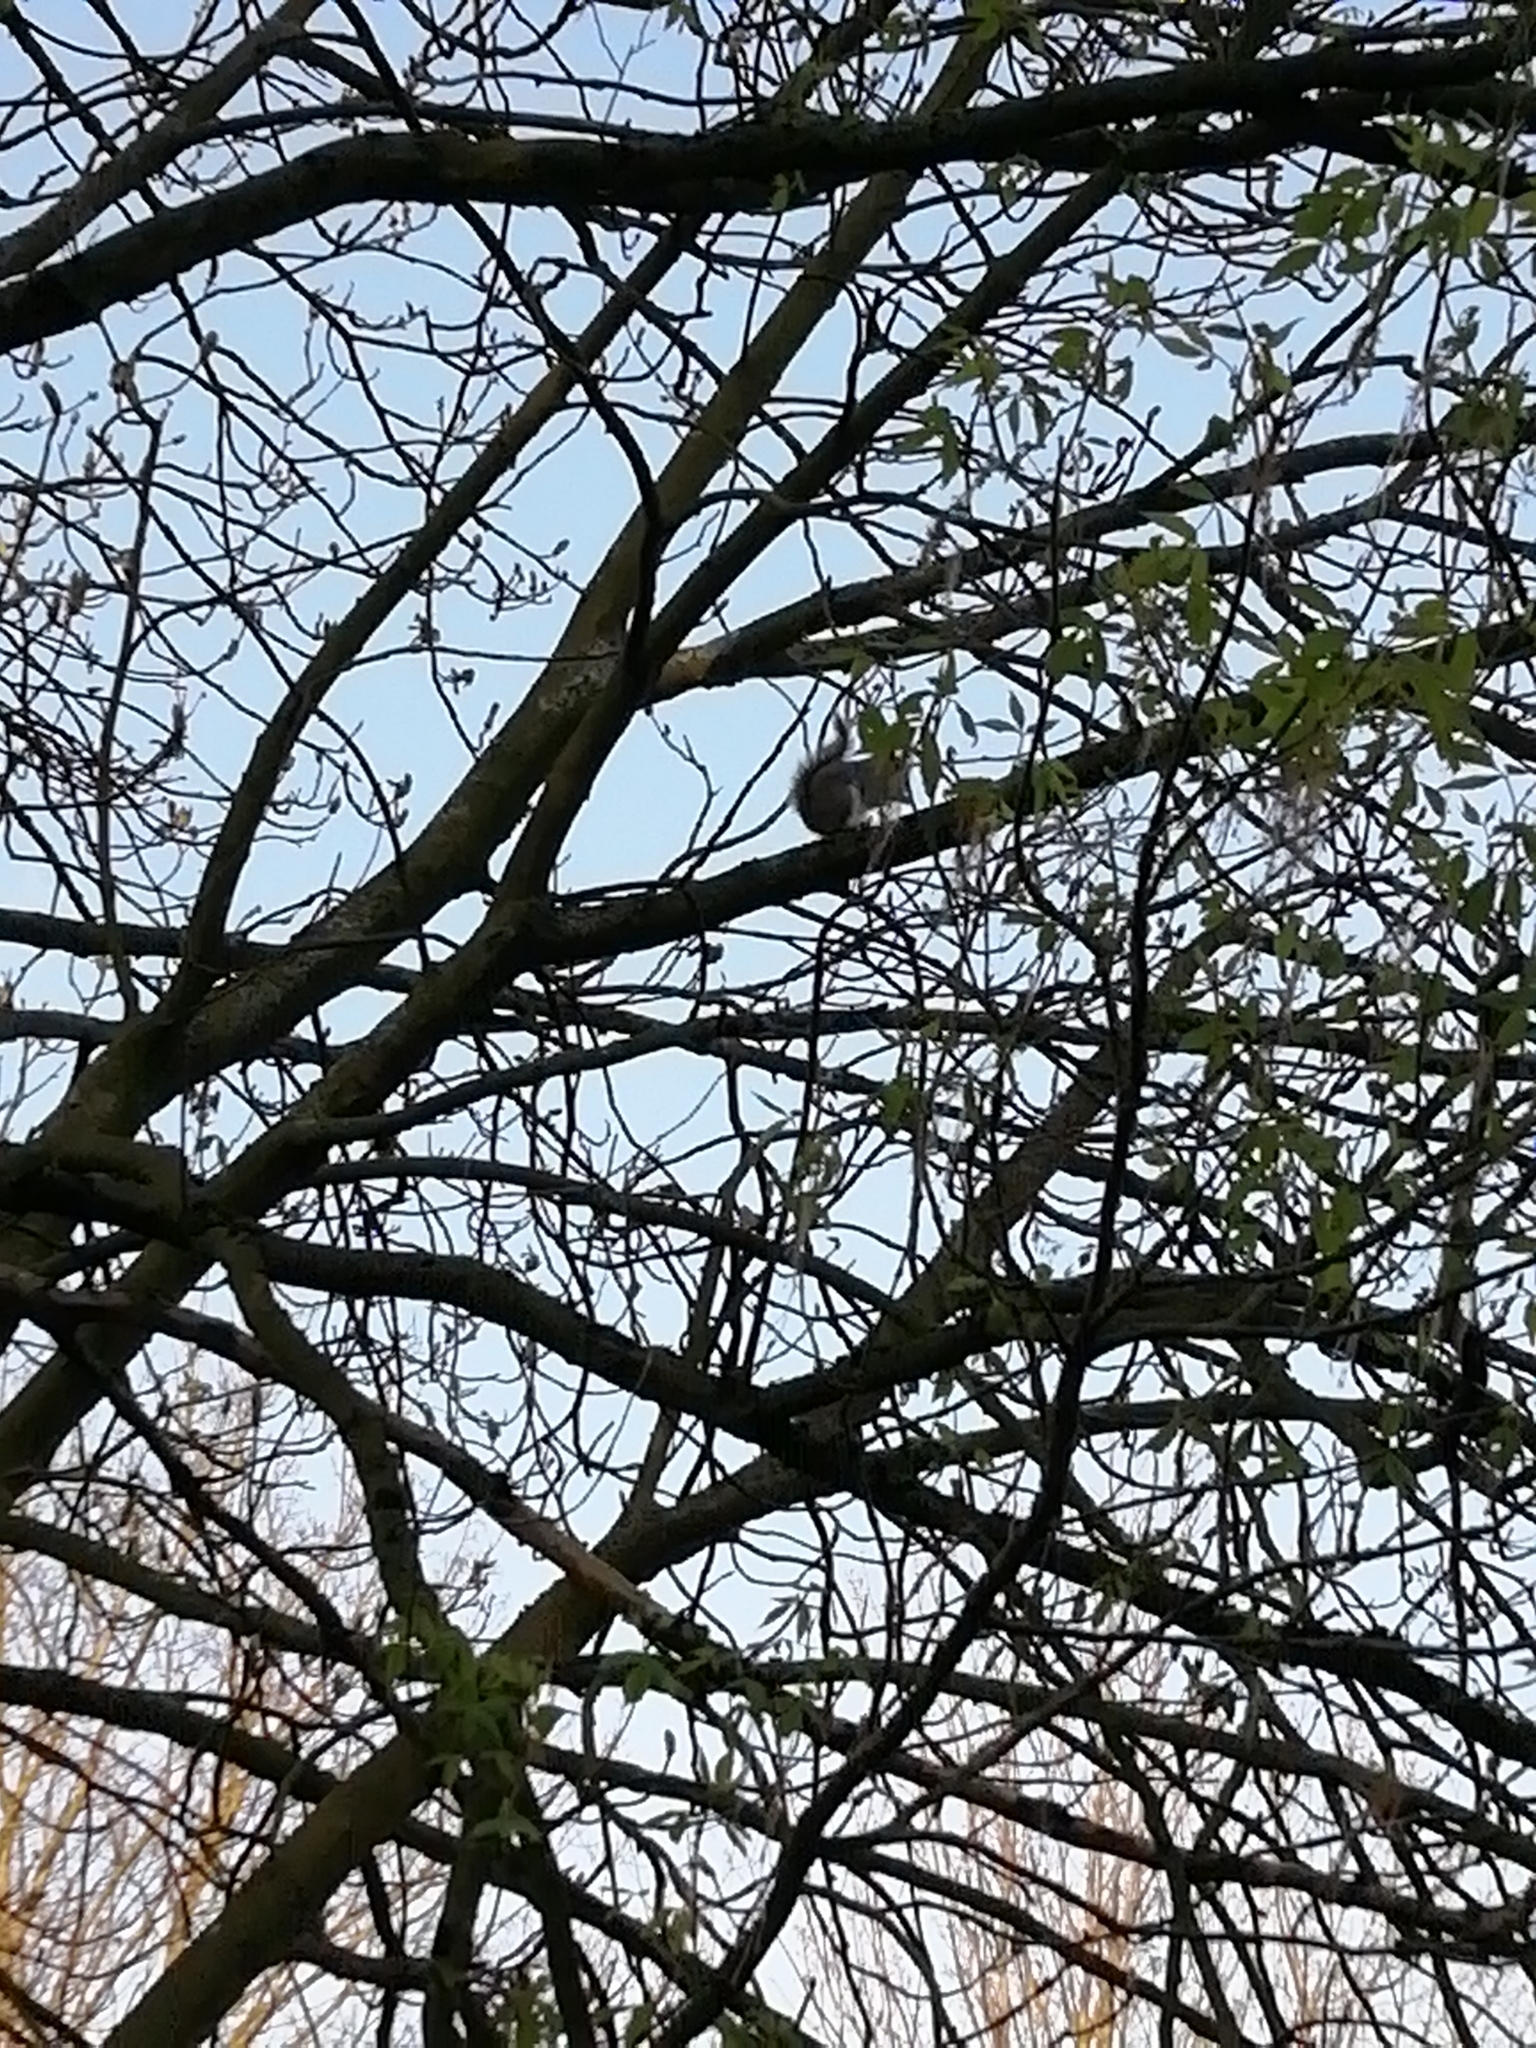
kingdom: Animalia
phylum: Chordata
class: Mammalia
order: Rodentia
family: Sciuridae
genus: Sciurus
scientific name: Sciurus carolinensis
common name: Eastern gray squirrel
